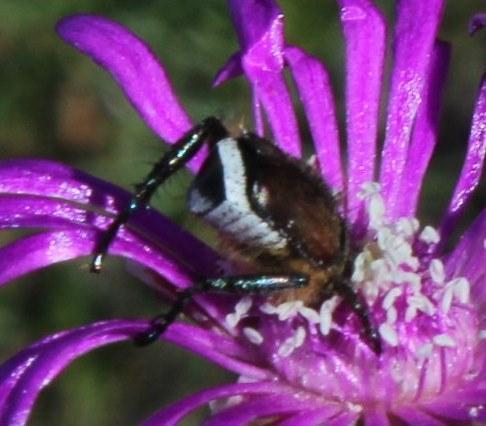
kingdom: Animalia
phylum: Arthropoda
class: Insecta
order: Coleoptera
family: Scarabaeidae
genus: Pachycnema
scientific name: Pachycnema namaqua
